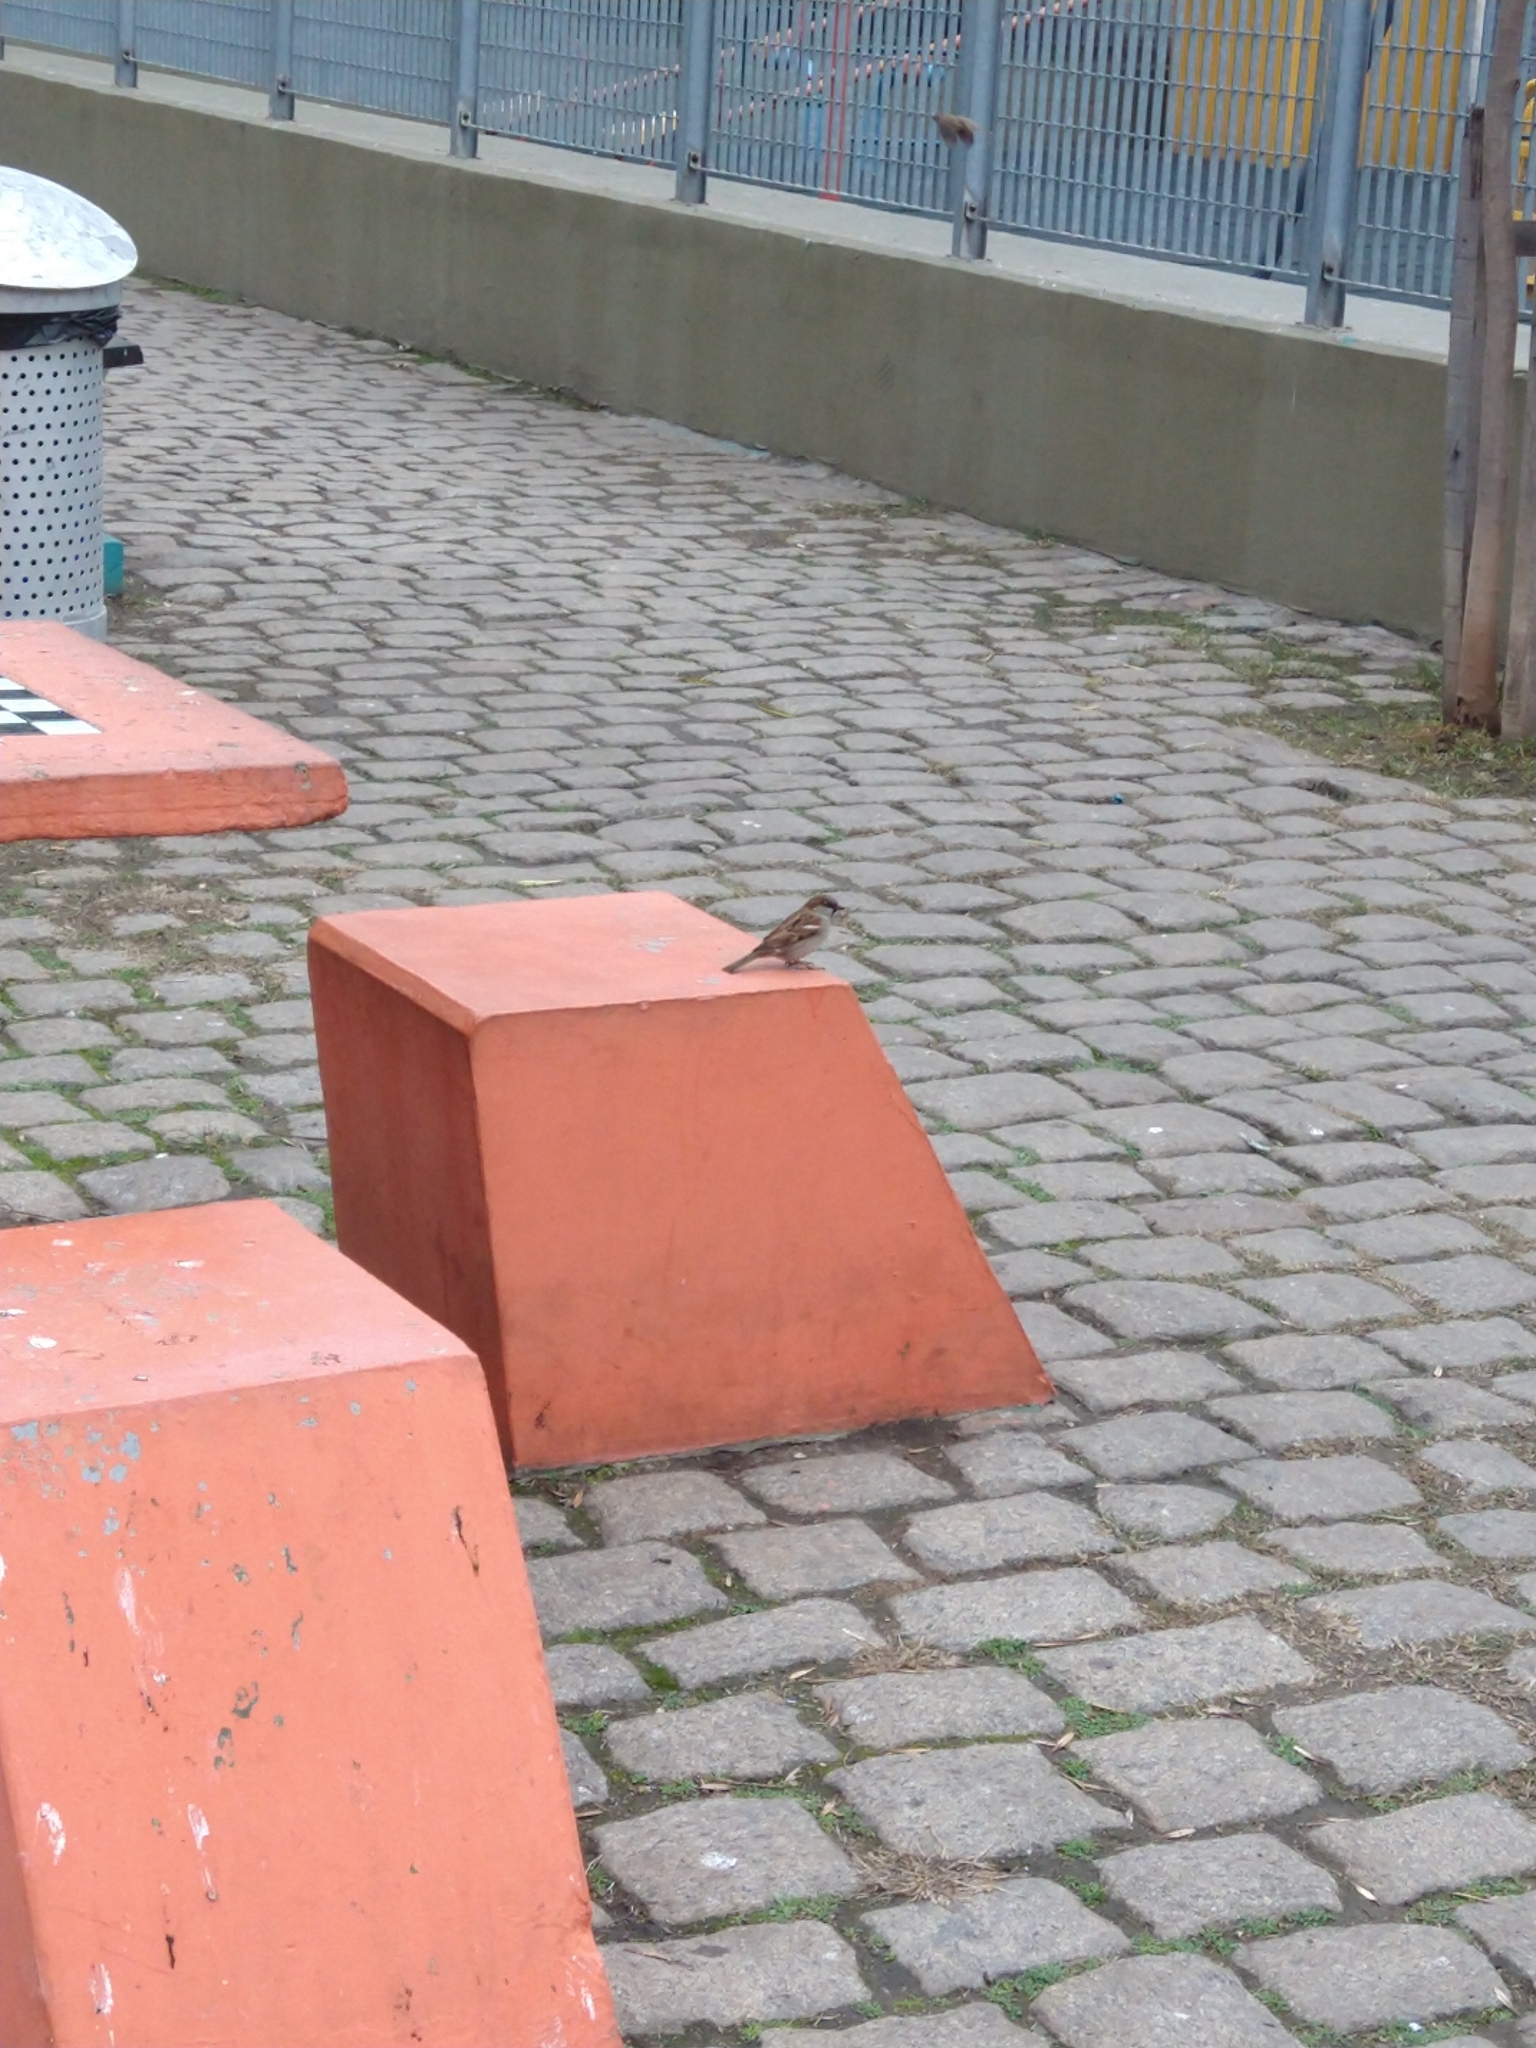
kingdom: Animalia
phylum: Chordata
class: Aves
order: Passeriformes
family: Passeridae
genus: Passer
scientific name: Passer domesticus
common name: House sparrow
